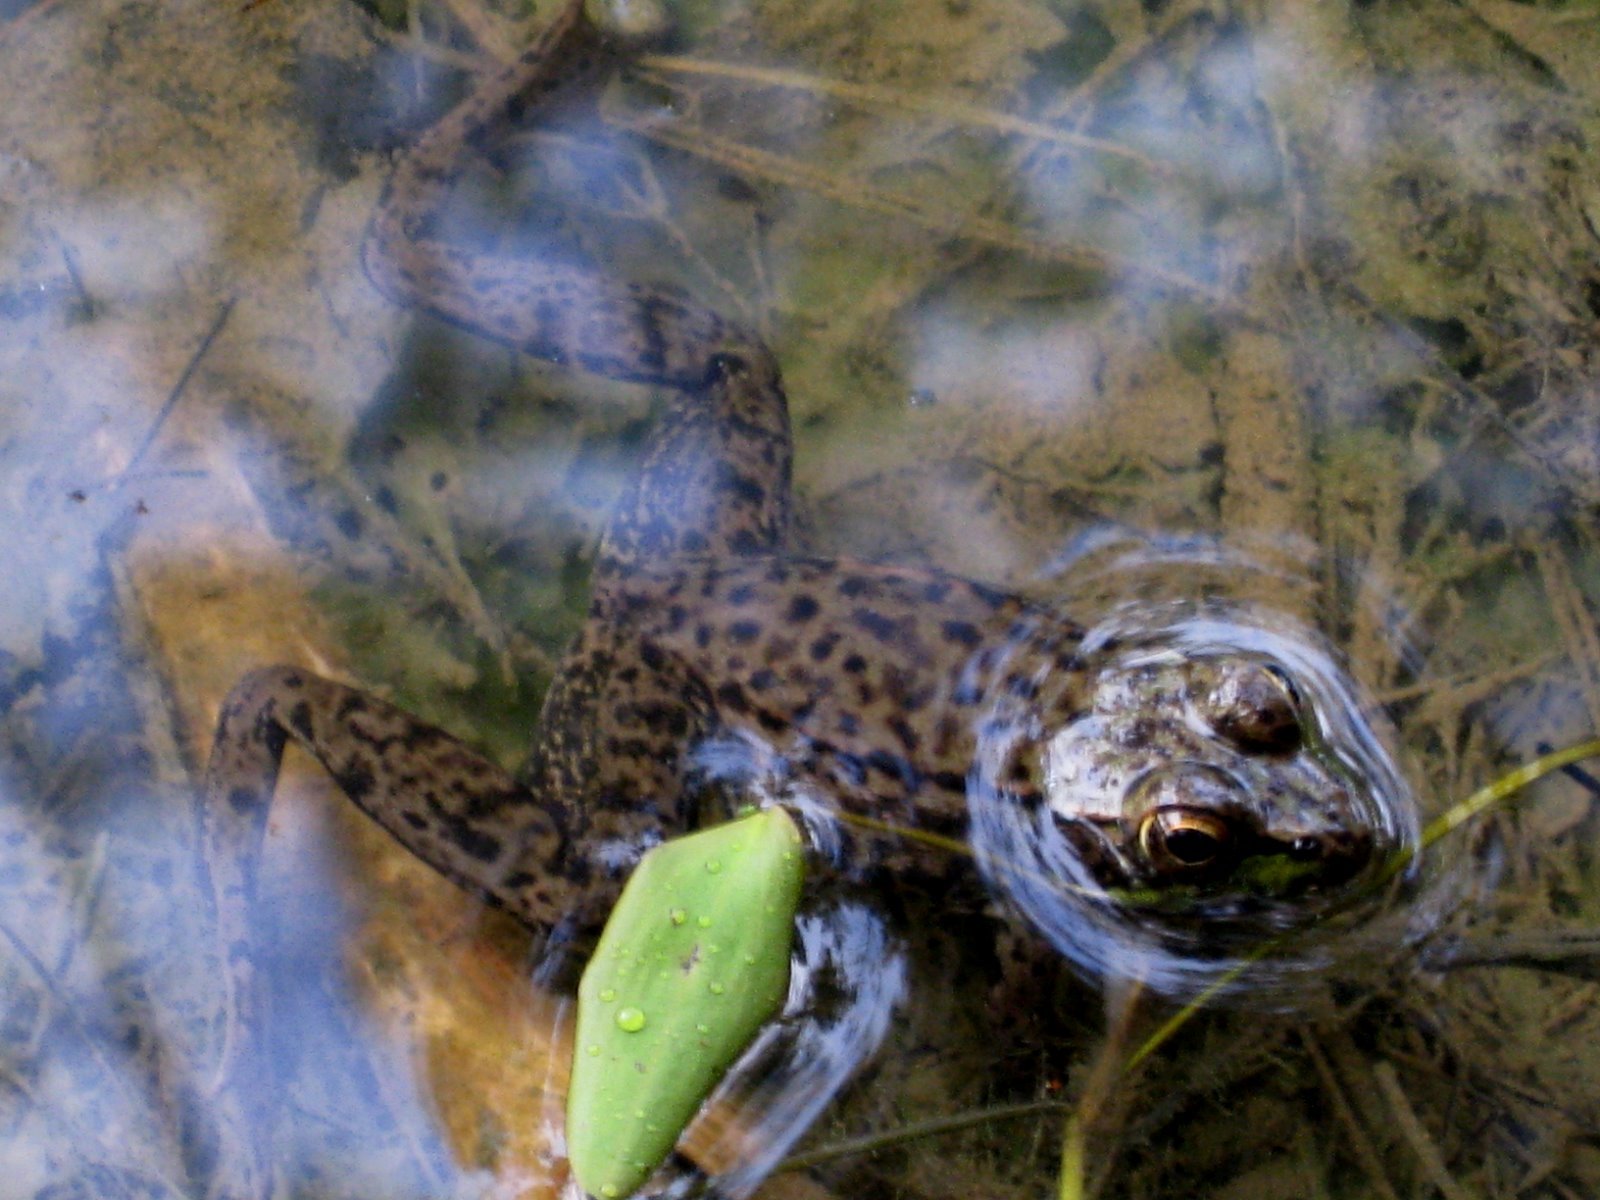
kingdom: Animalia
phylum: Chordata
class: Amphibia
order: Anura
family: Ranidae
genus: Lithobates
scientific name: Lithobates clamitans
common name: Green frog
